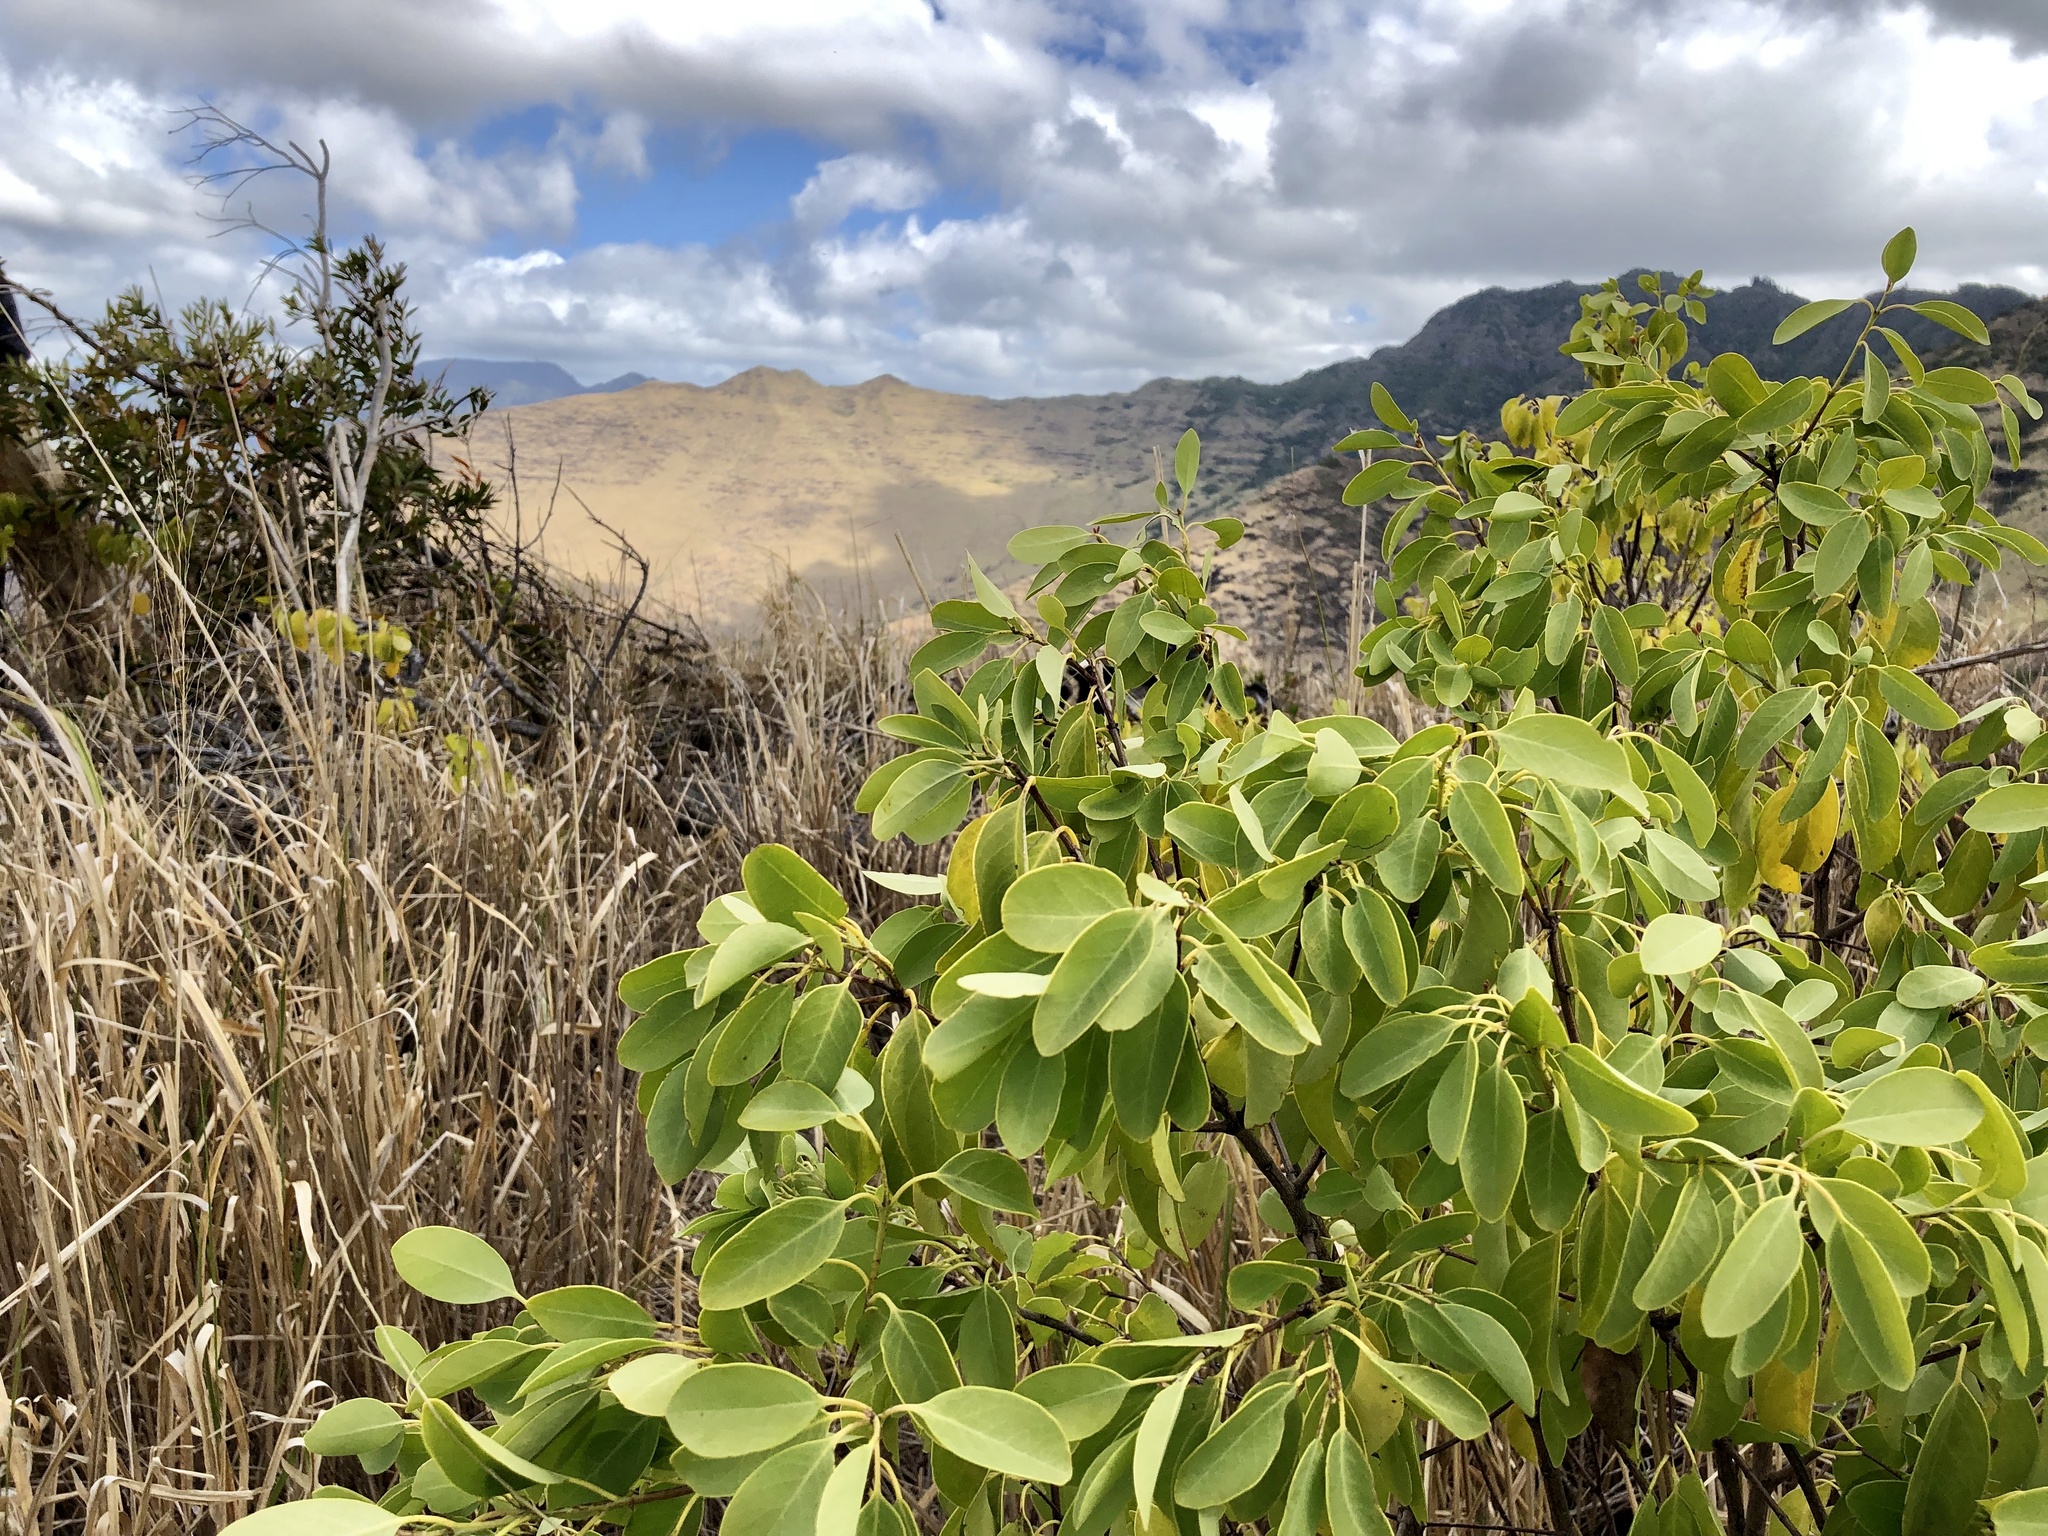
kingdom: Plantae
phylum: Tracheophyta
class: Magnoliopsida
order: Santalales
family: Santalaceae
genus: Santalum
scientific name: Santalum ellipticum
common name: Coast sandalwood
